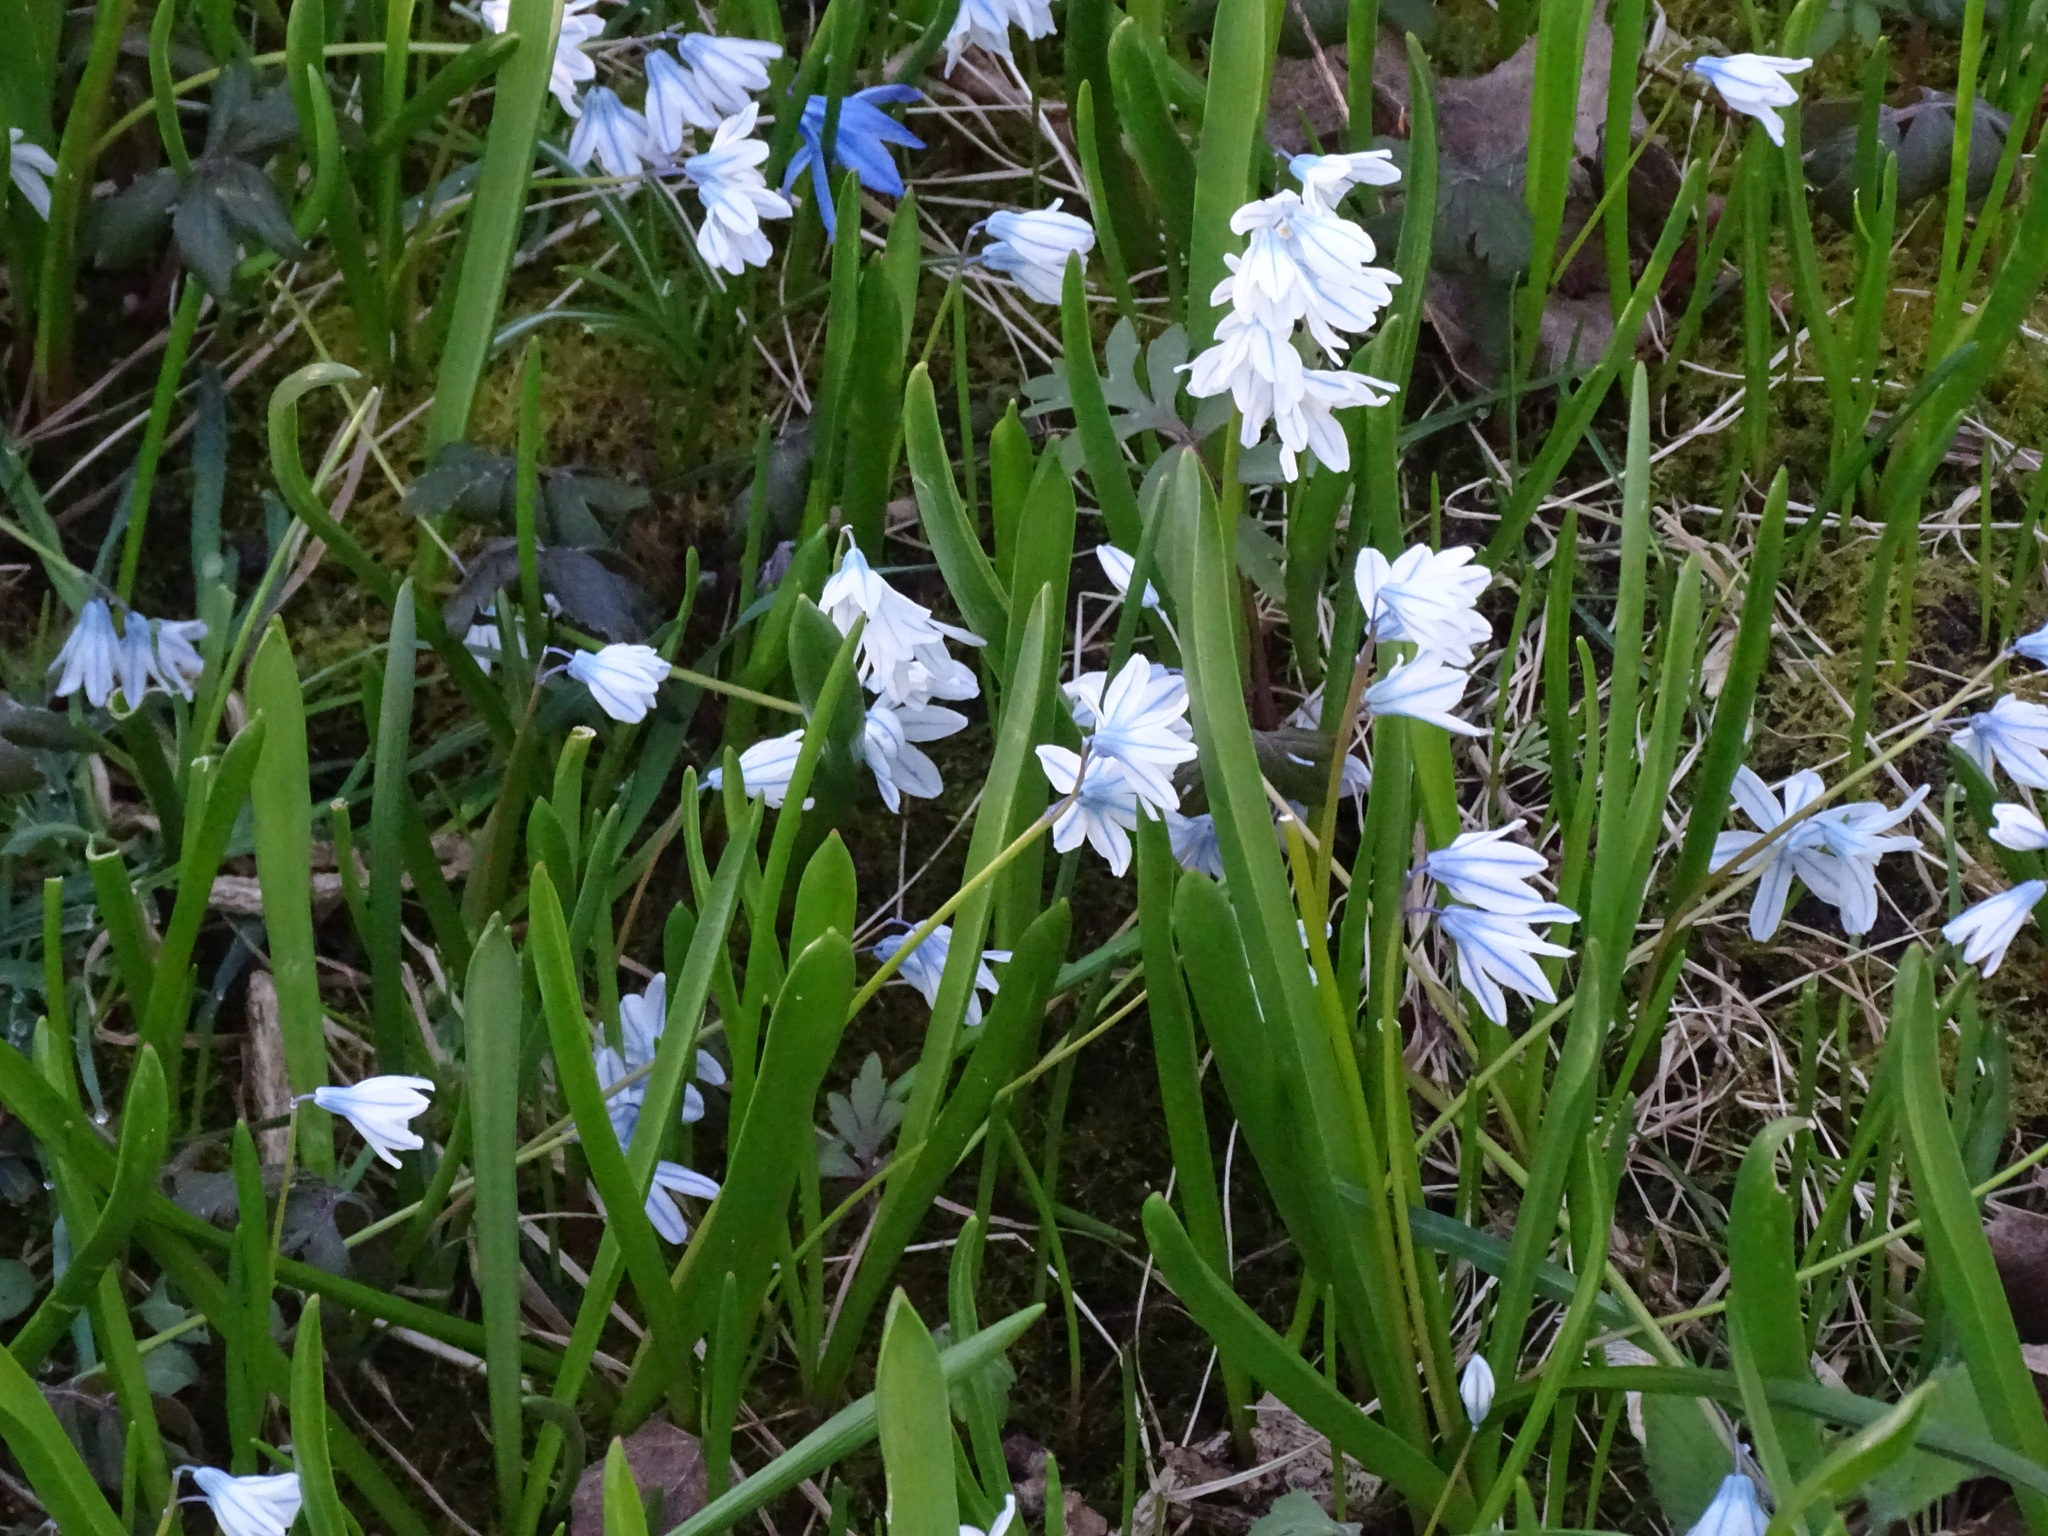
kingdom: Plantae
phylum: Tracheophyta
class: Liliopsida
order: Asparagales
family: Asparagaceae
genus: Puschkinia
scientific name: Puschkinia scilloides
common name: Striped squill
